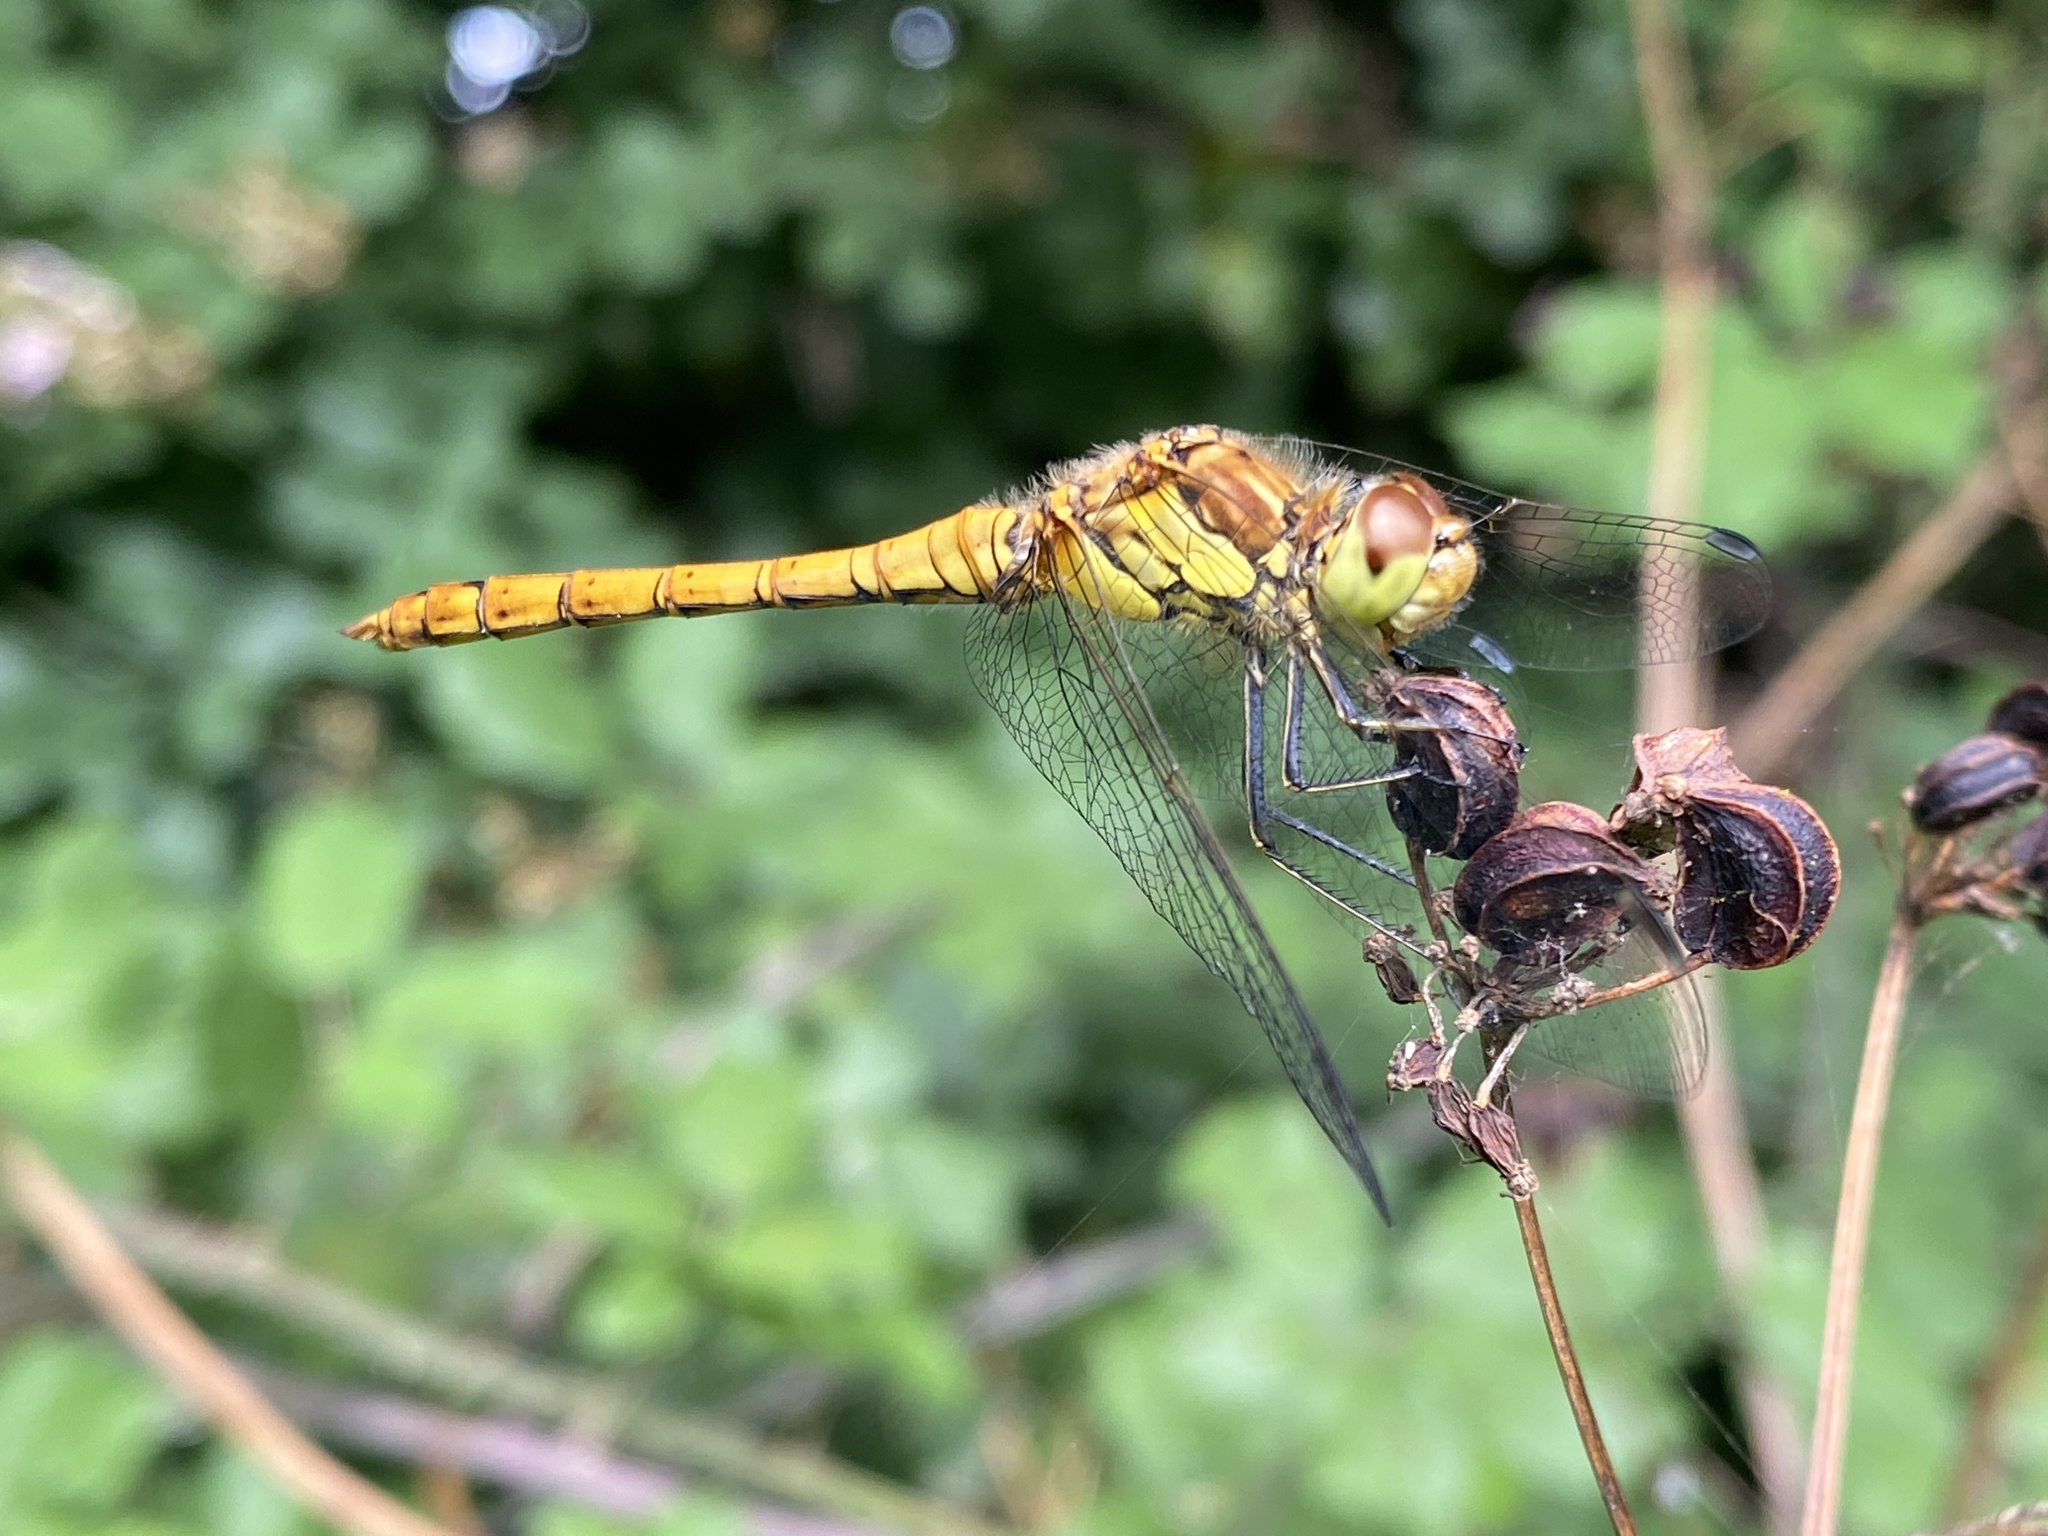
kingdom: Animalia
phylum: Arthropoda
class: Insecta
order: Odonata
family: Libellulidae
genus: Sympetrum
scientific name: Sympetrum striolatum
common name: Common darter
